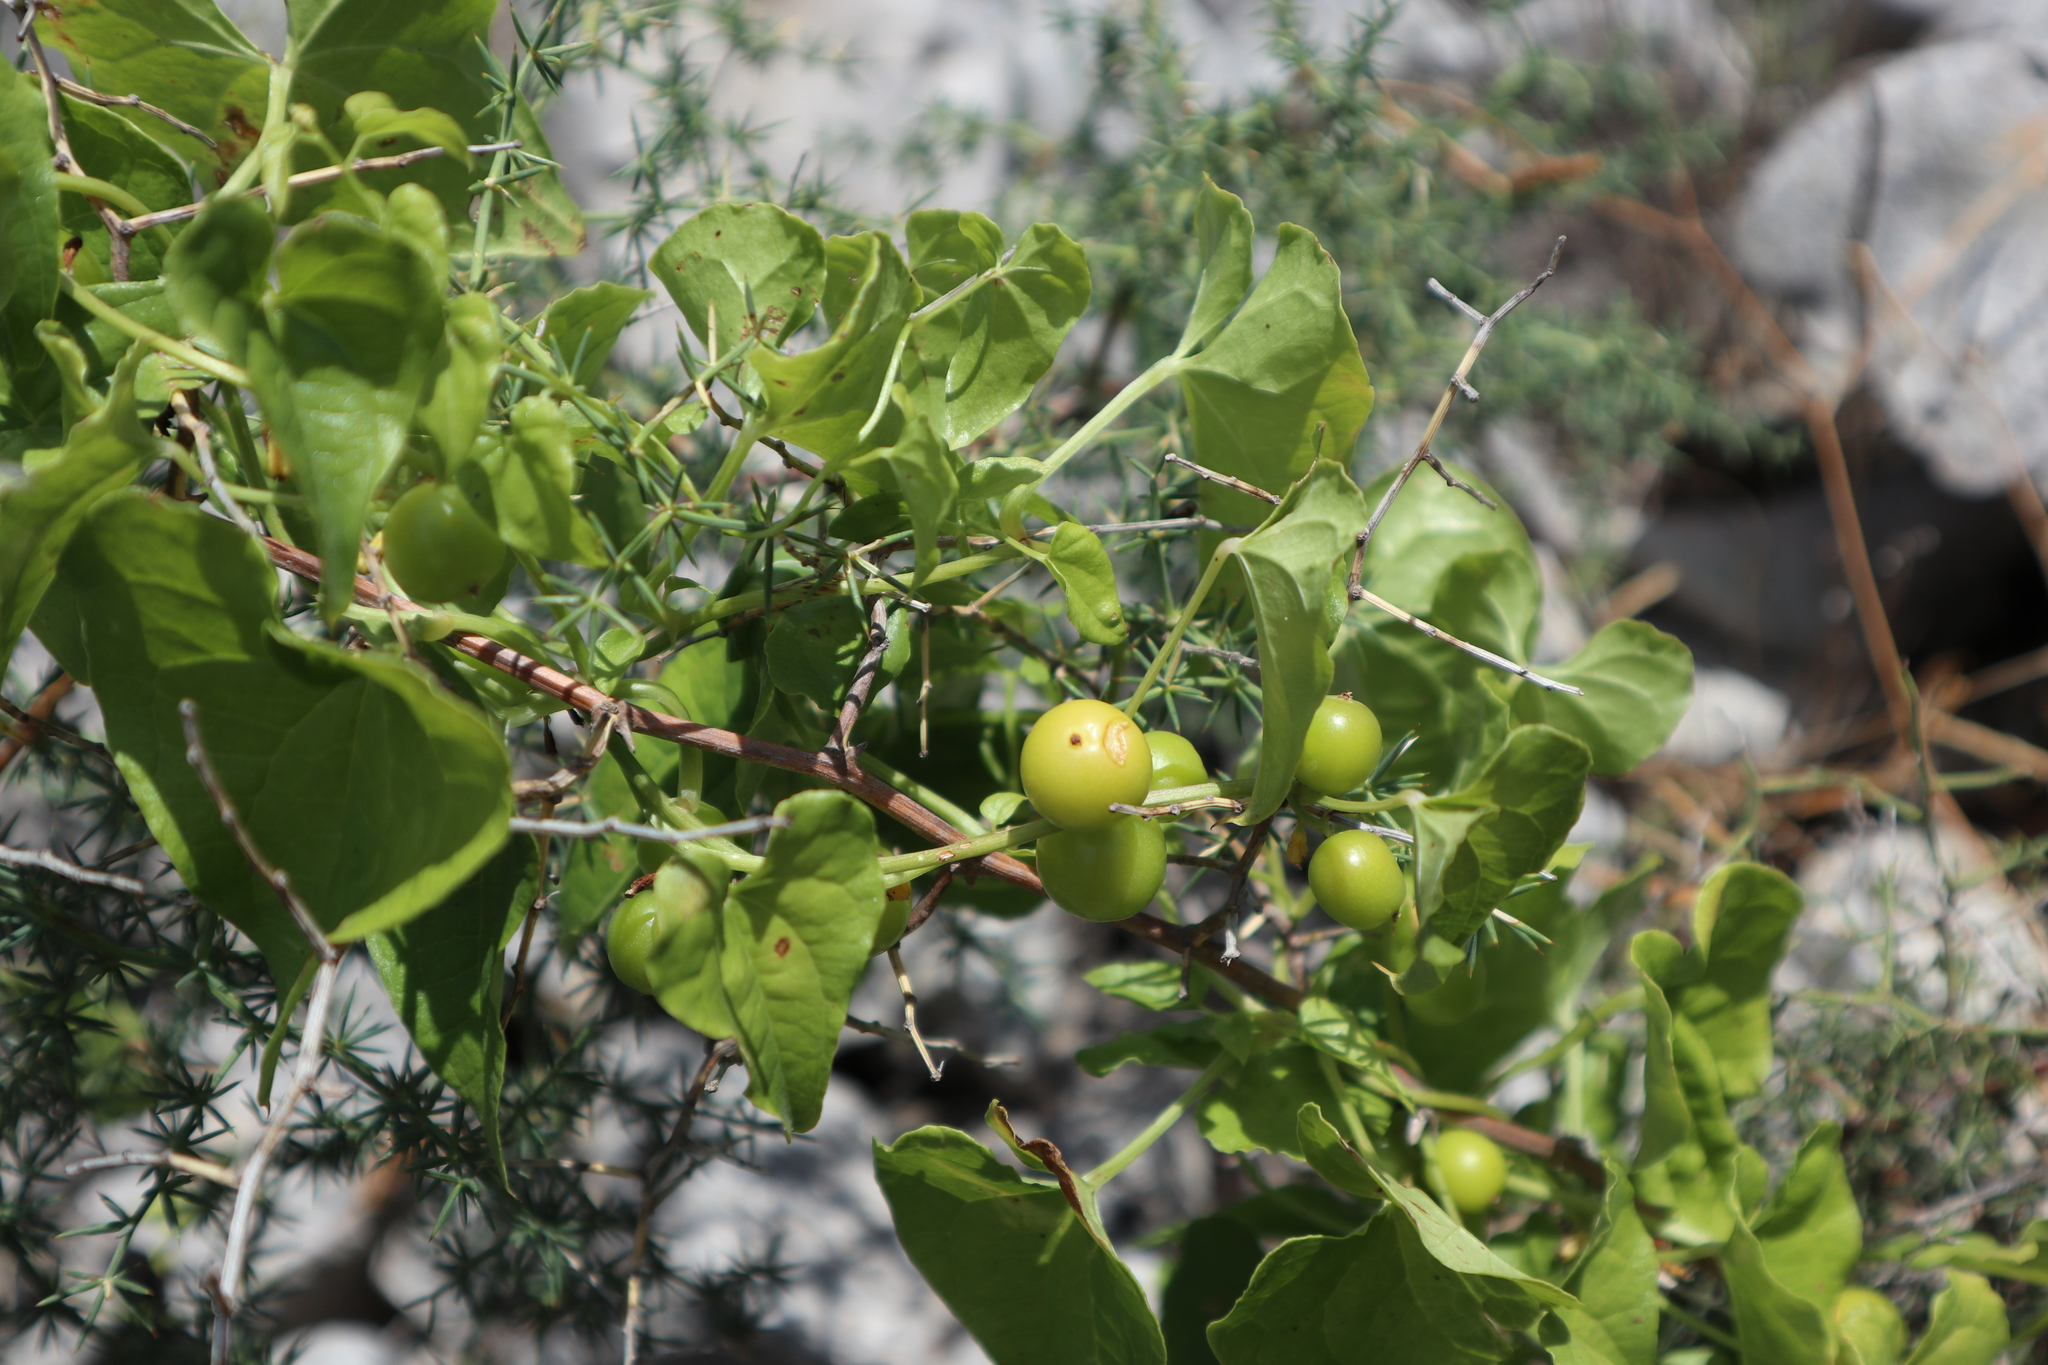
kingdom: Plantae
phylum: Tracheophyta
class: Liliopsida
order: Dioscoreales
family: Dioscoreaceae
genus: Dioscorea
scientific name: Dioscorea communis
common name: Black-bindweed
